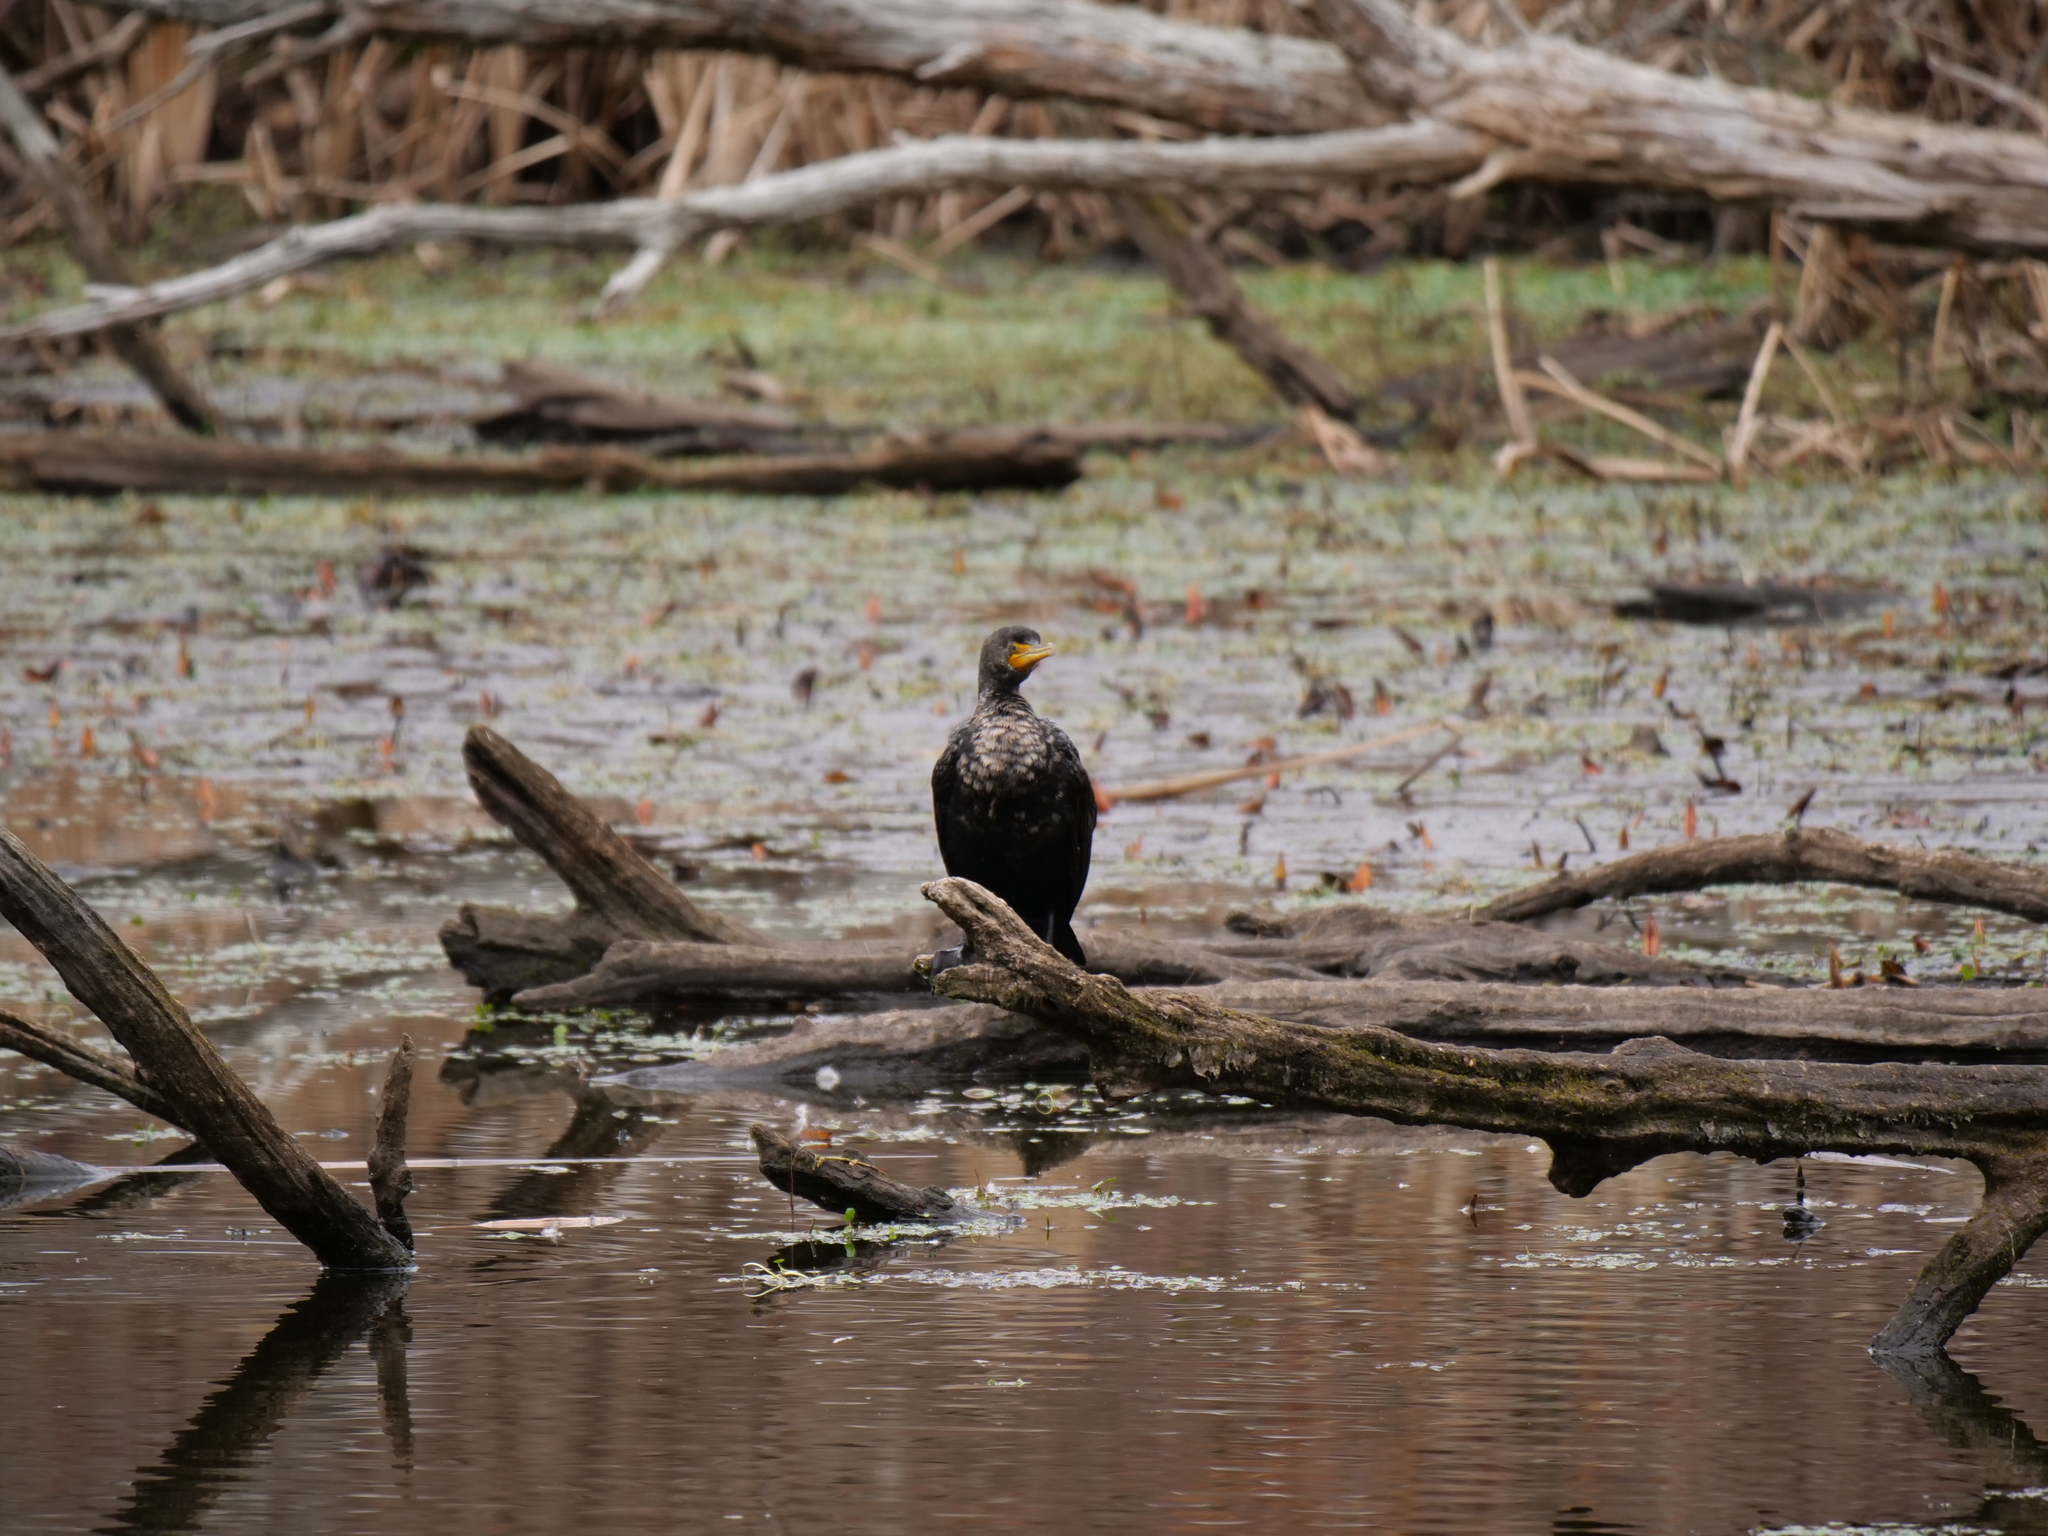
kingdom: Animalia
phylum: Chordata
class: Aves
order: Suliformes
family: Phalacrocoracidae
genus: Phalacrocorax
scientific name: Phalacrocorax auritus
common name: Double-crested cormorant
